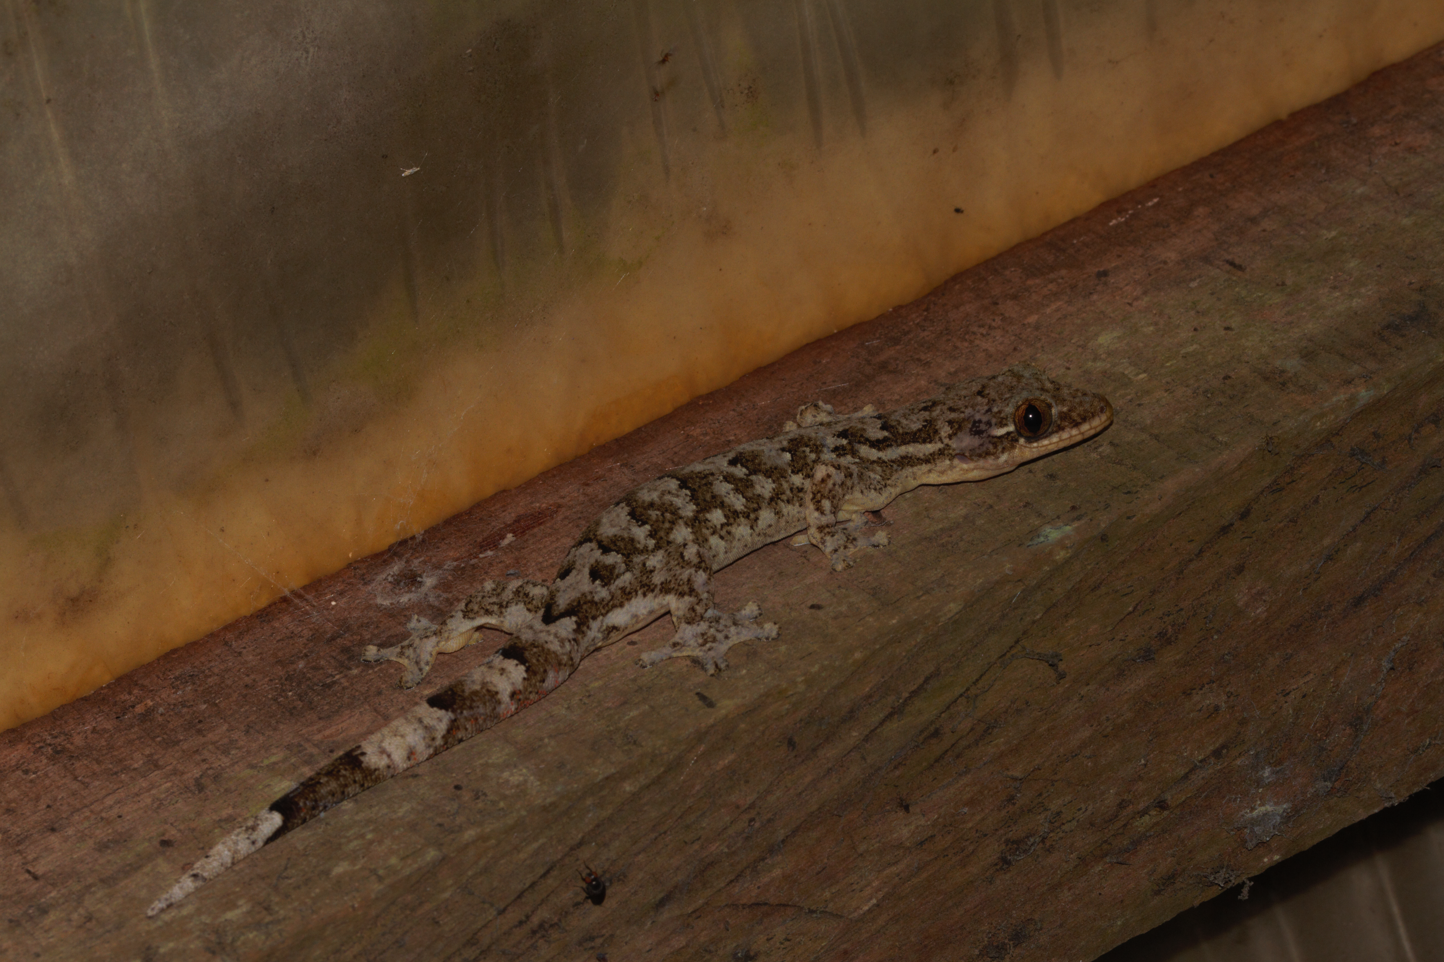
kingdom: Animalia
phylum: Chordata
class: Squamata
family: Phyllodactylidae
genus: Thecadactylus
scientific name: Thecadactylus rapicauda
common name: Turnip-tailed gecko
